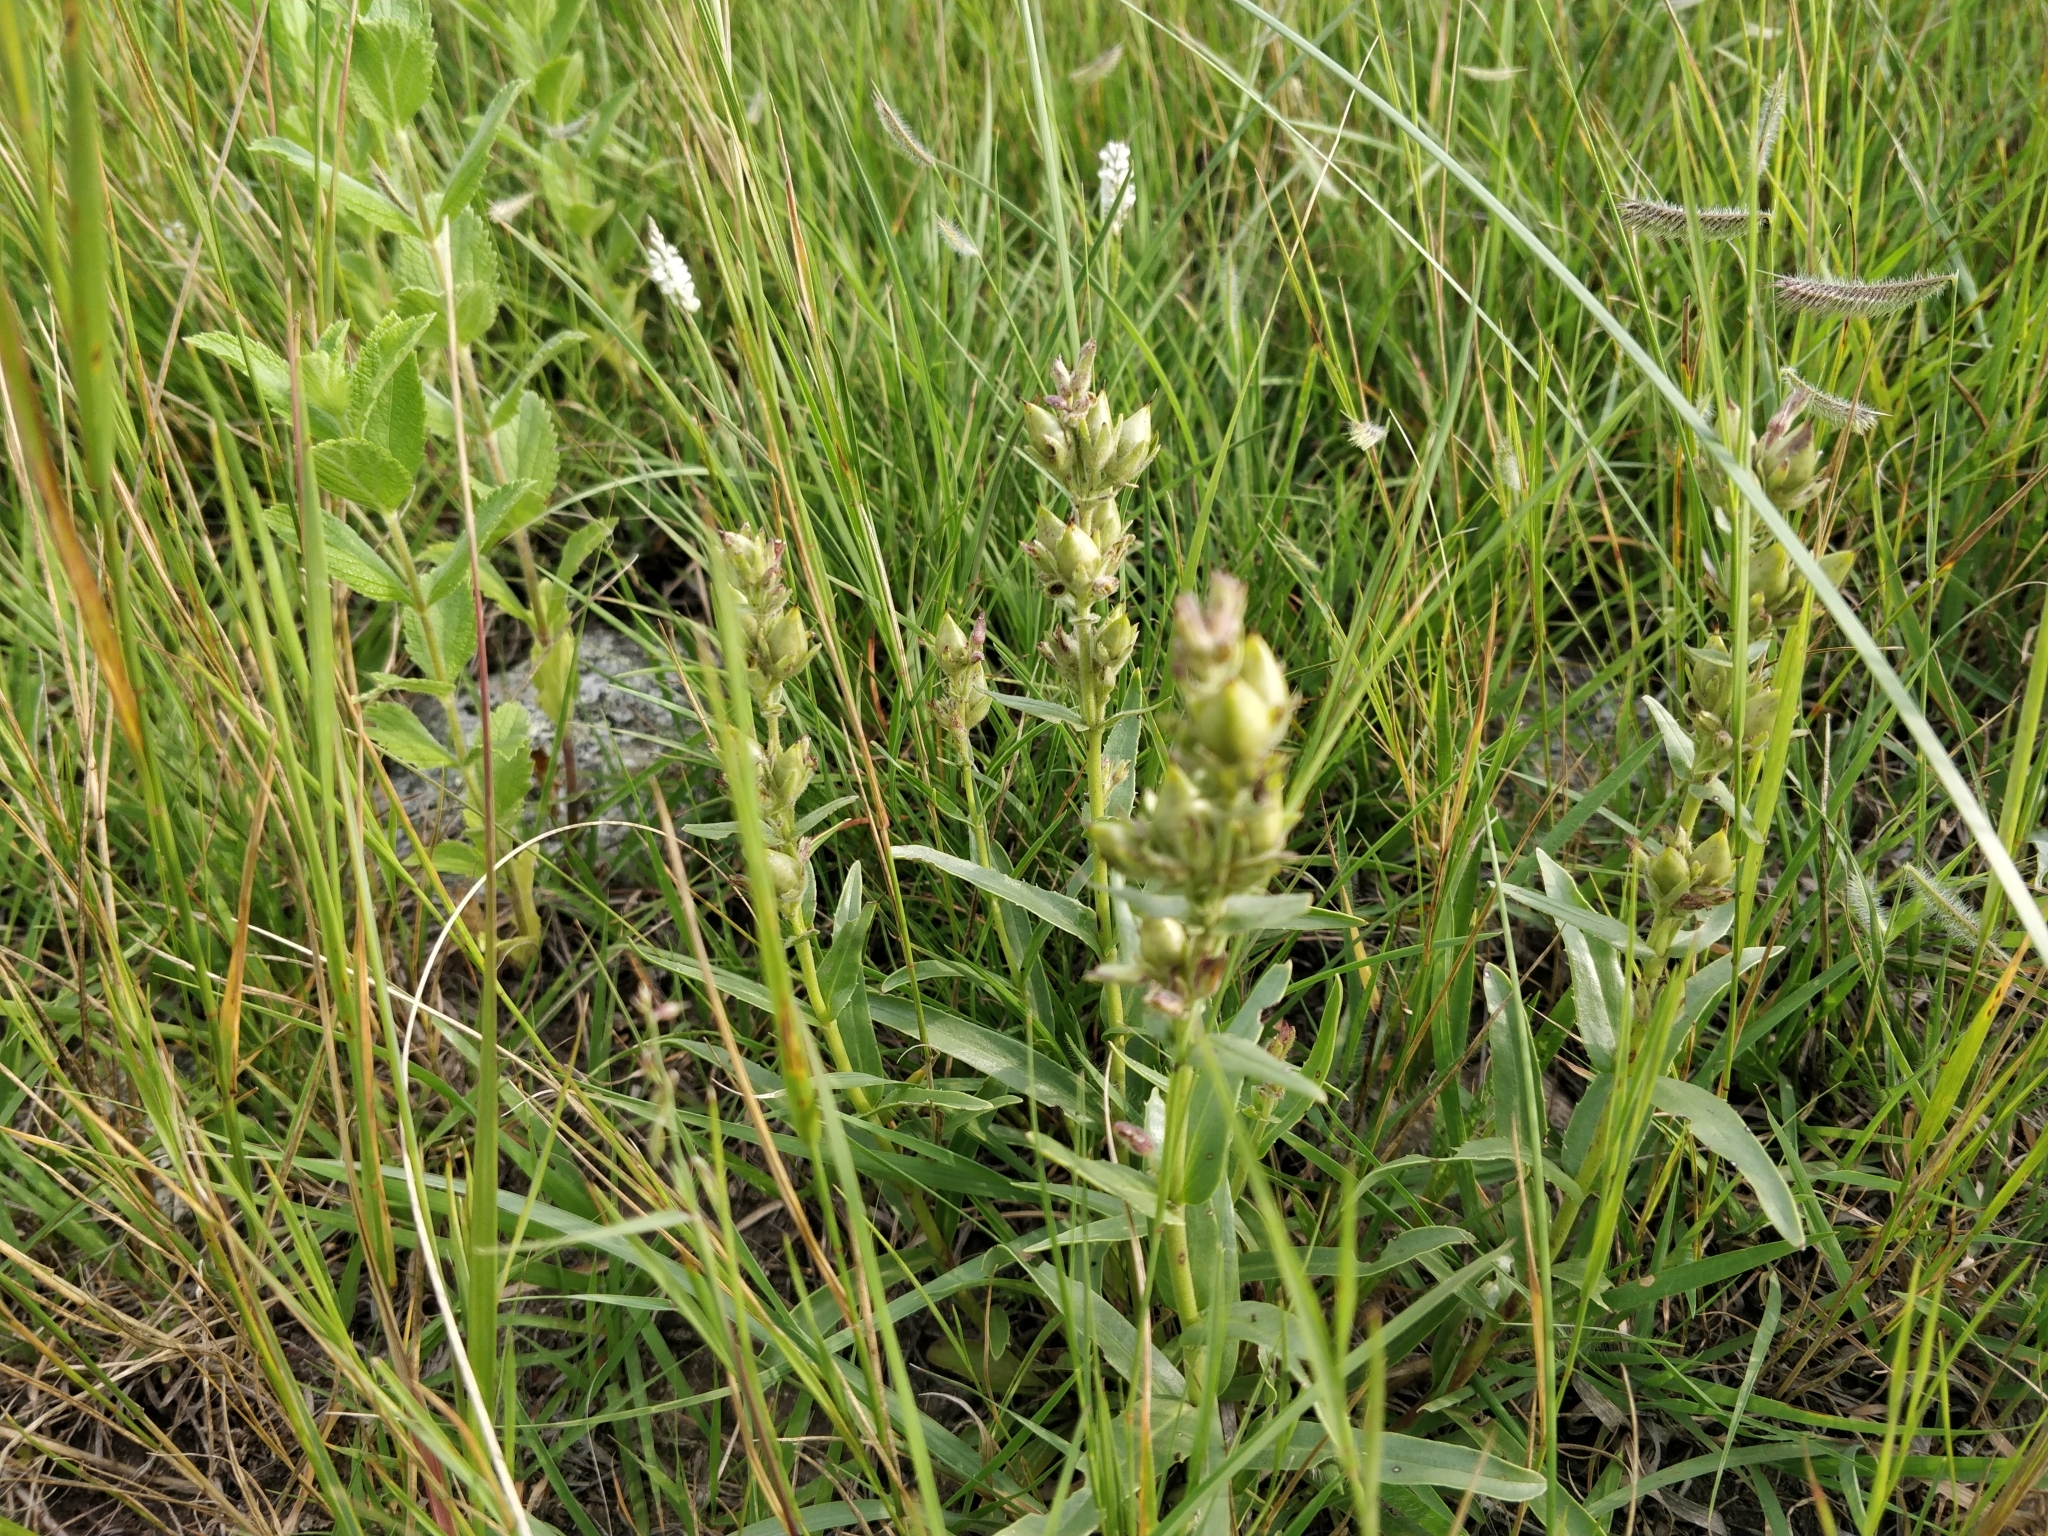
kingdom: Plantae
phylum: Tracheophyta
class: Magnoliopsida
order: Lamiales
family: Plantaginaceae
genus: Penstemon
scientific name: Penstemon albidus
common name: White beardtongue
